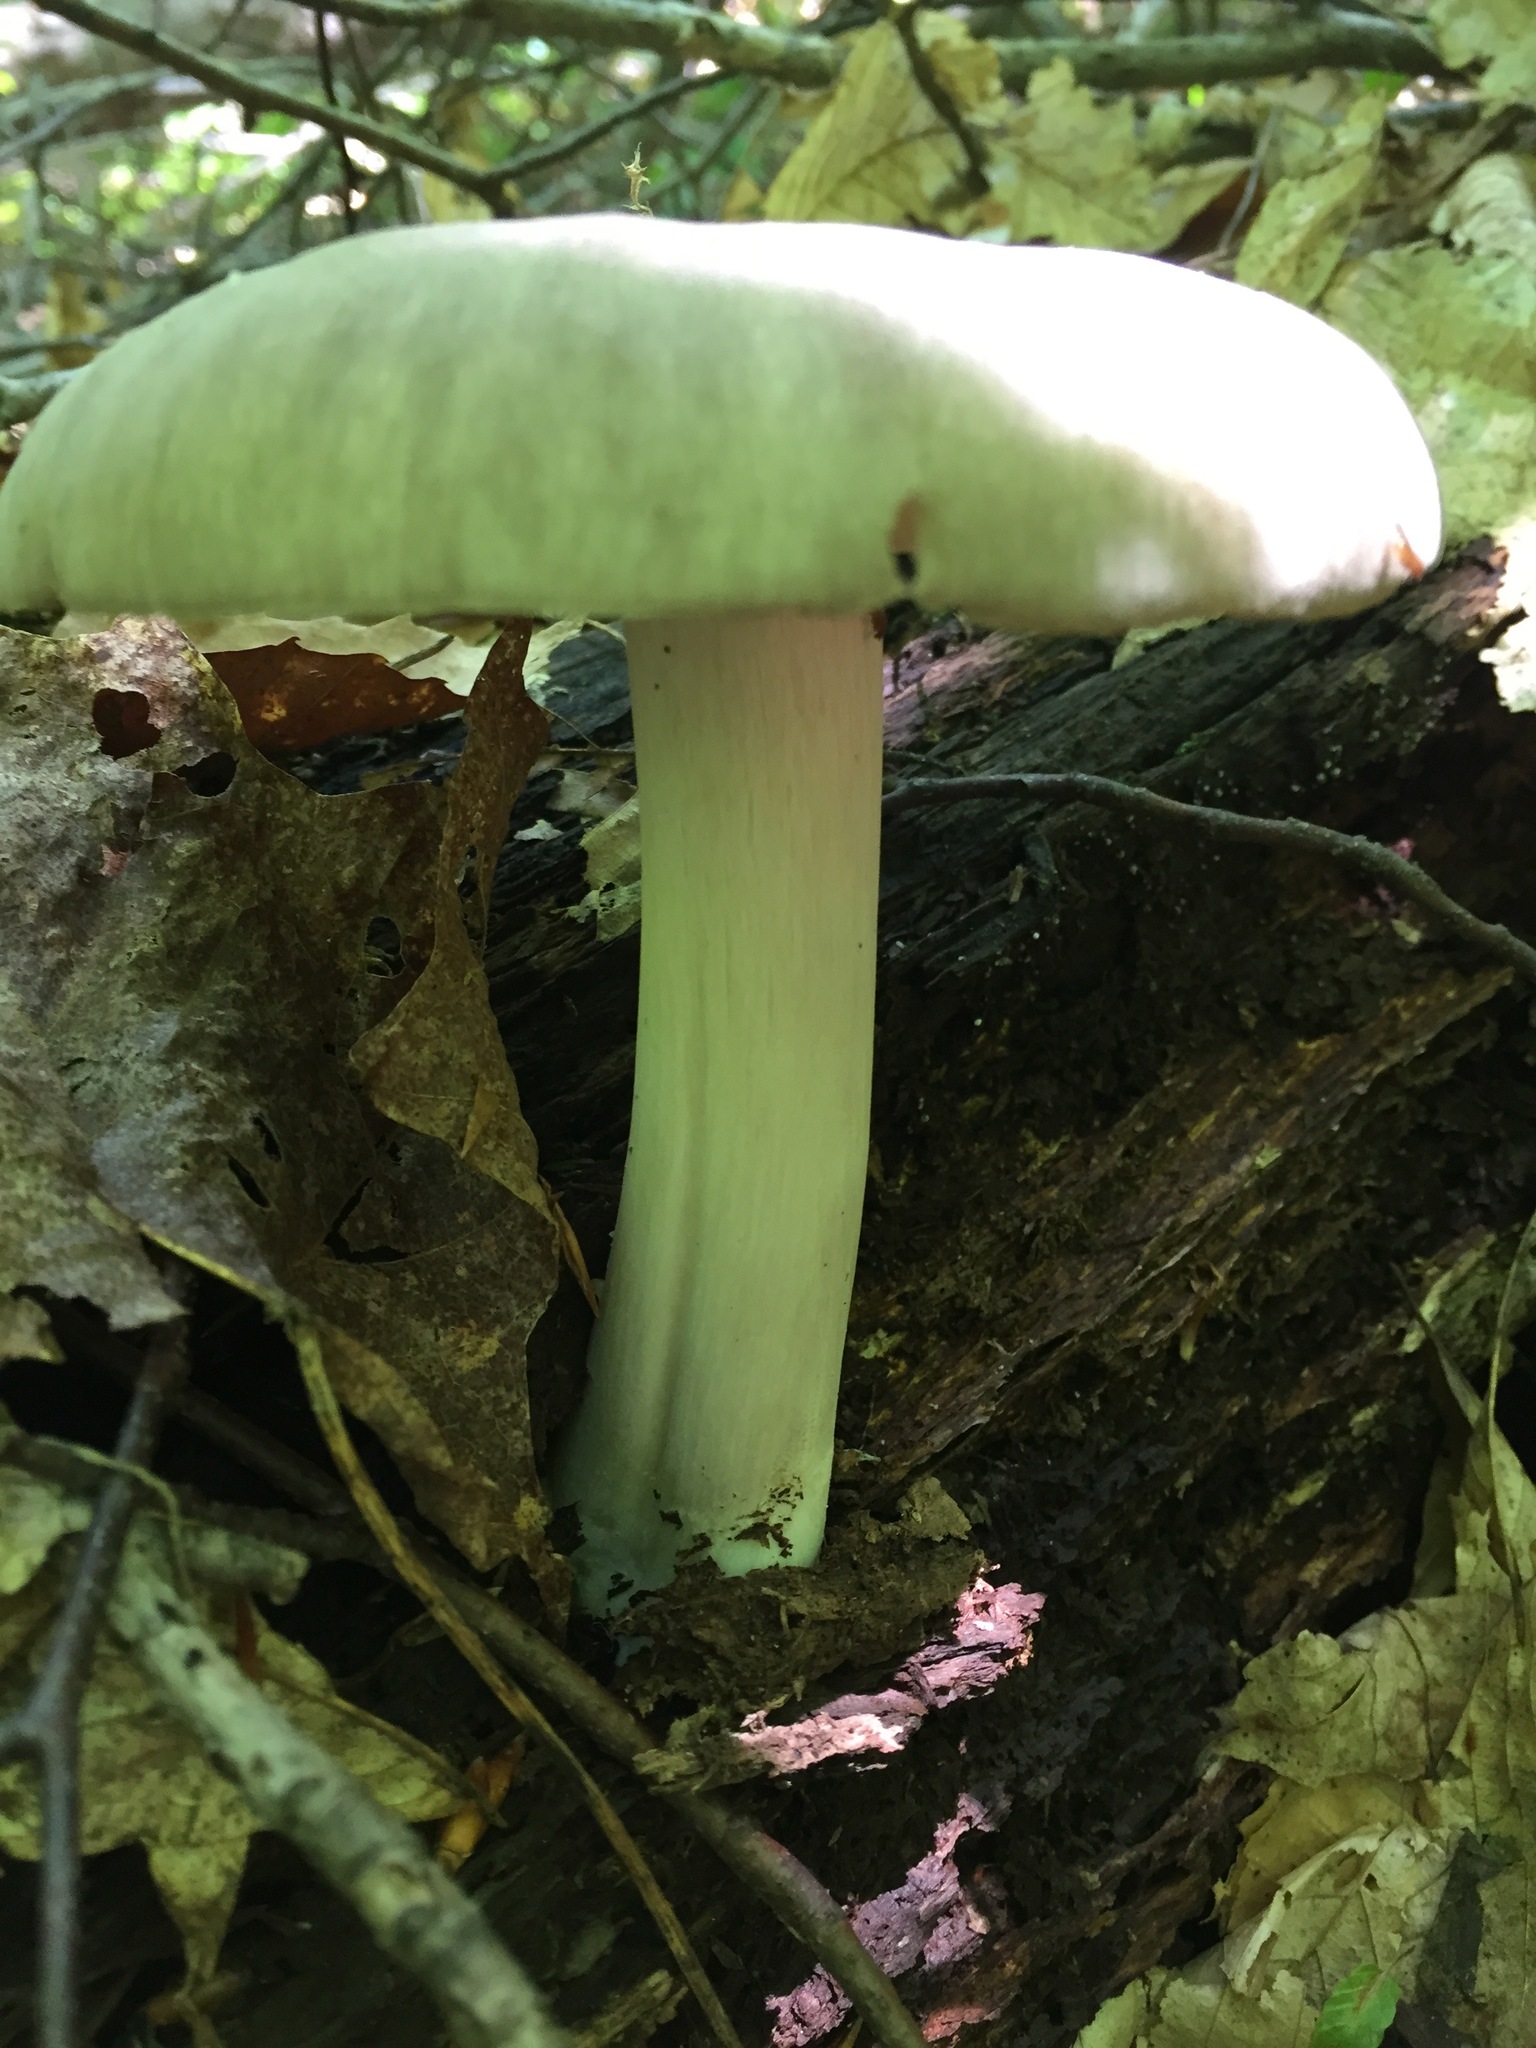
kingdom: Fungi
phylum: Basidiomycota
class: Agaricomycetes
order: Agaricales
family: Tricholomataceae
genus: Megacollybia
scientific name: Megacollybia rodmanii
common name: Eastern american platterful mushroom
